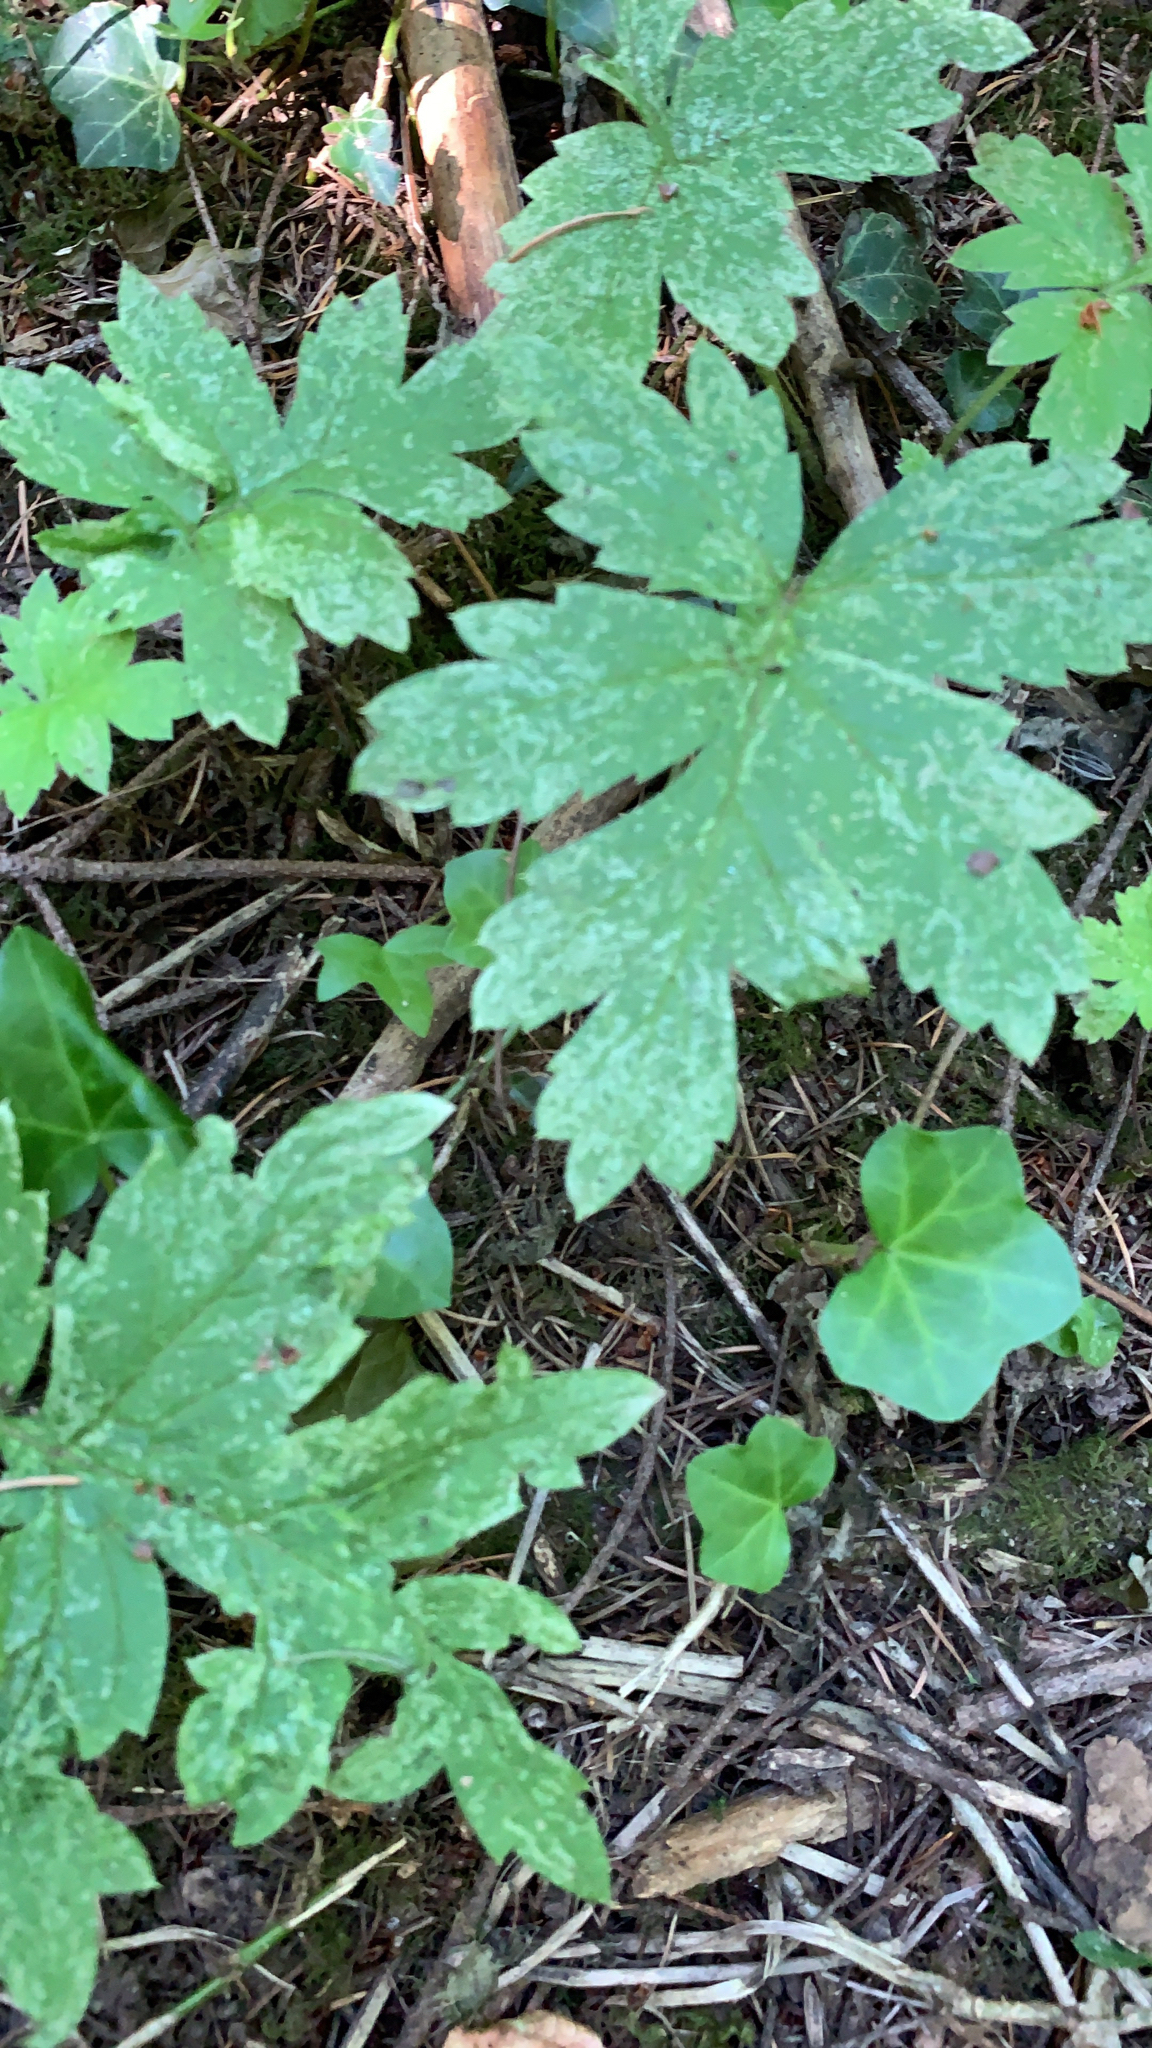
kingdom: Plantae
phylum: Tracheophyta
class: Magnoliopsida
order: Boraginales
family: Hydrophyllaceae
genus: Hydrophyllum
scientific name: Hydrophyllum tenuipes
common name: Pacific waterleaf
